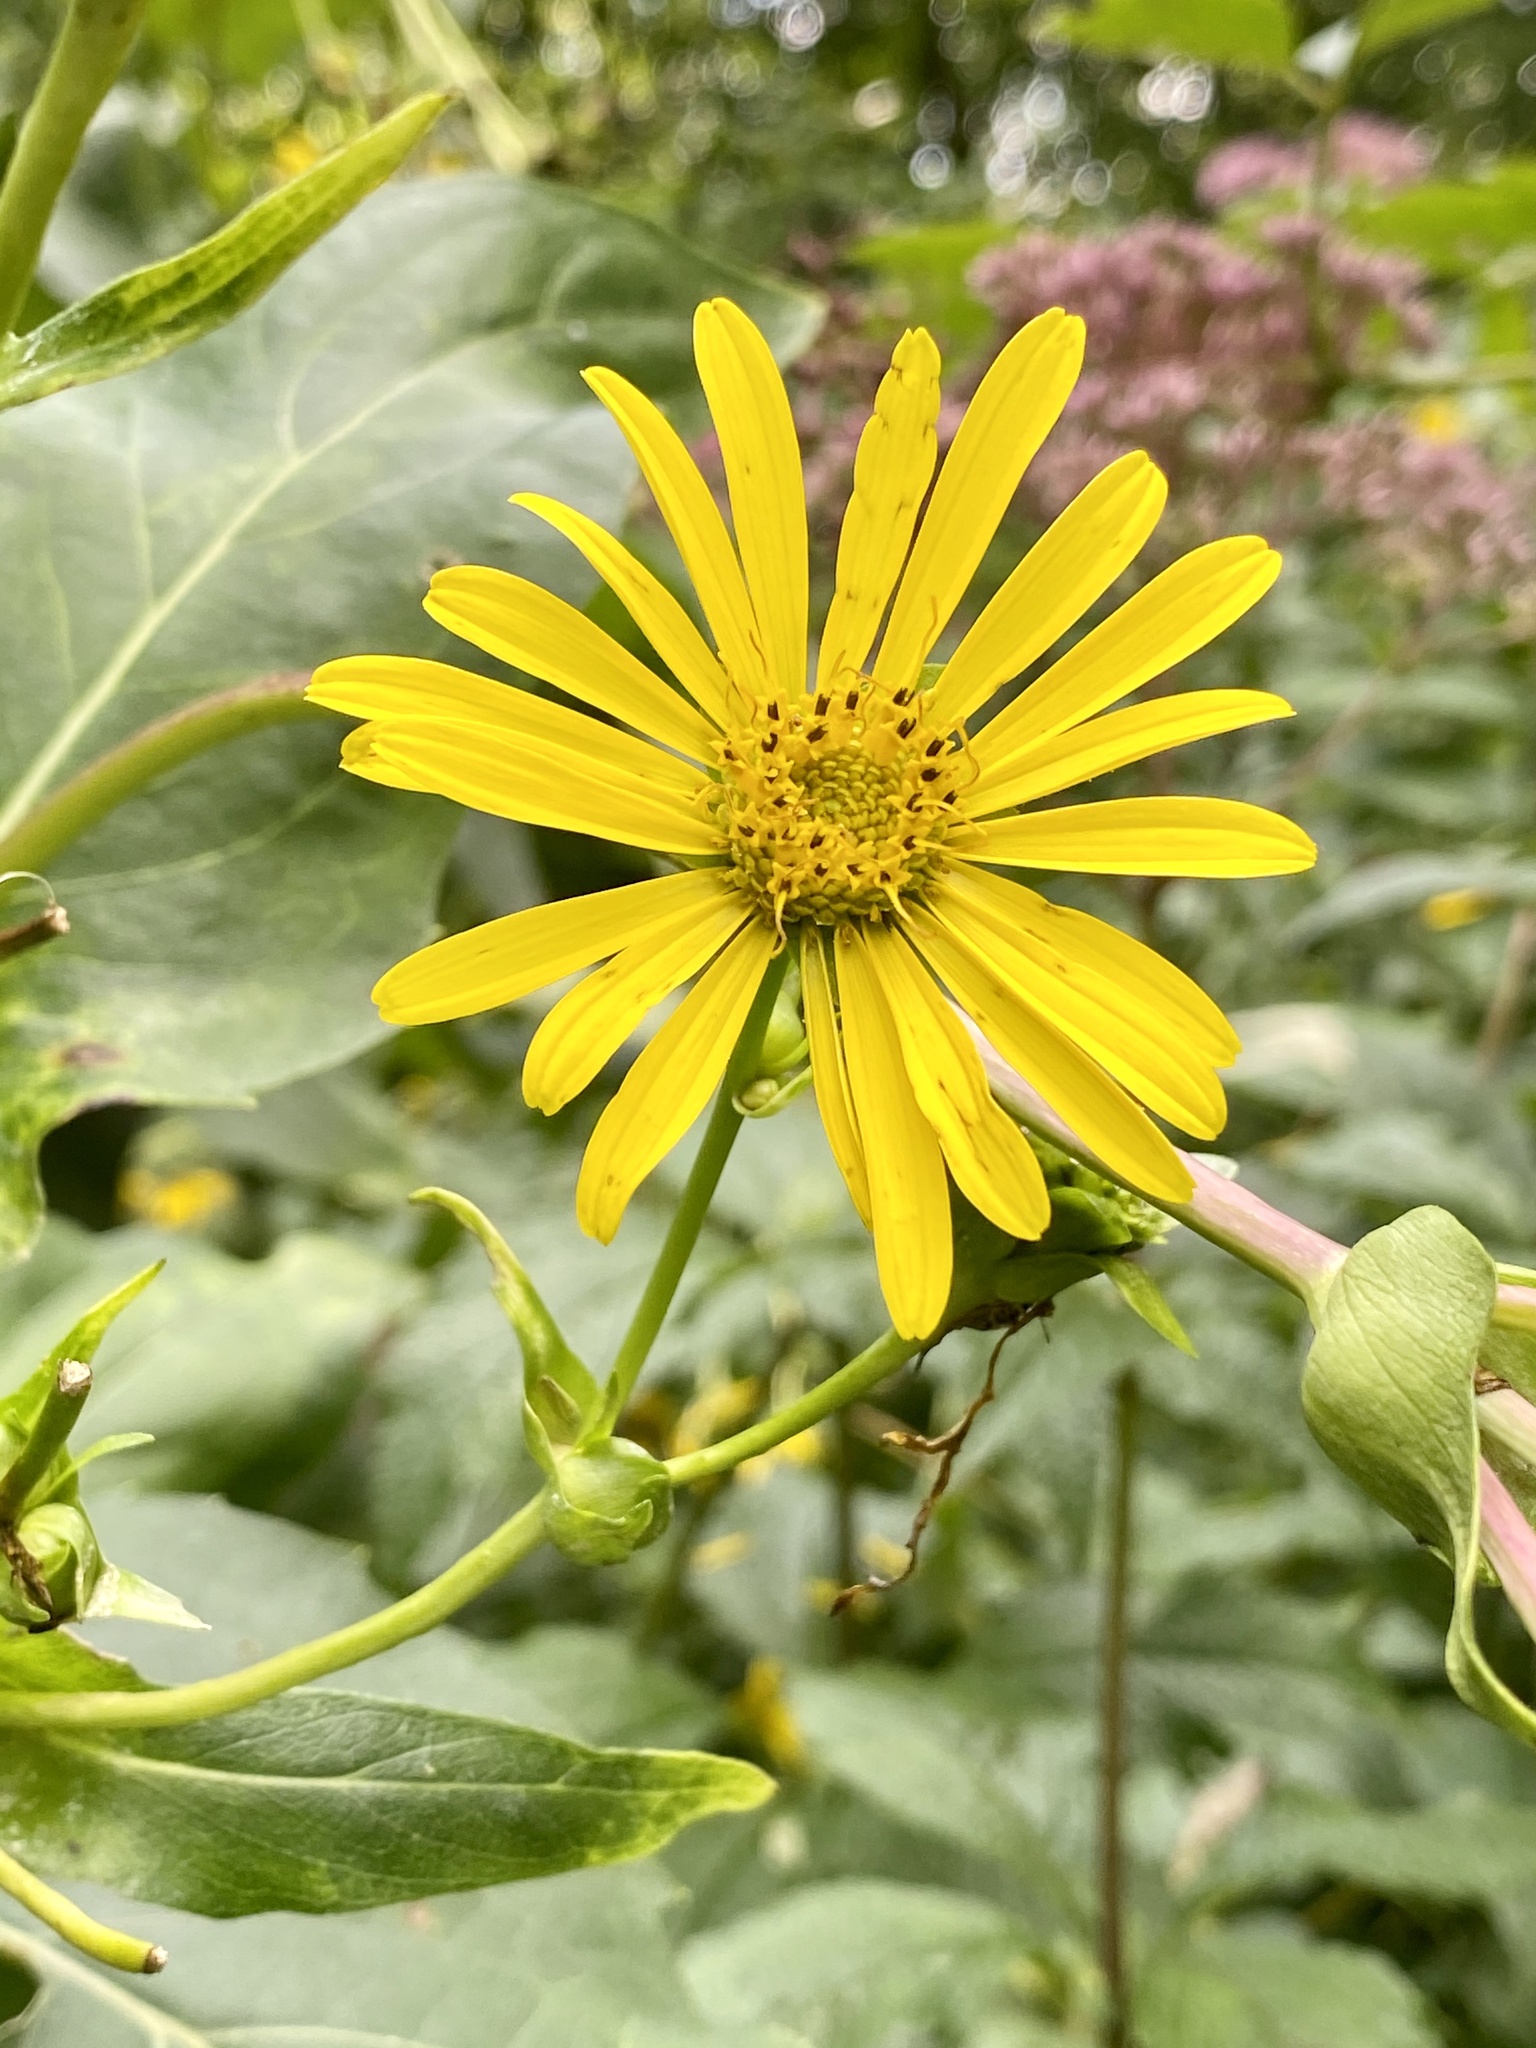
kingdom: Plantae
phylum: Tracheophyta
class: Magnoliopsida
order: Asterales
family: Asteraceae
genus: Silphium
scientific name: Silphium perfoliatum
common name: Cup-plant
